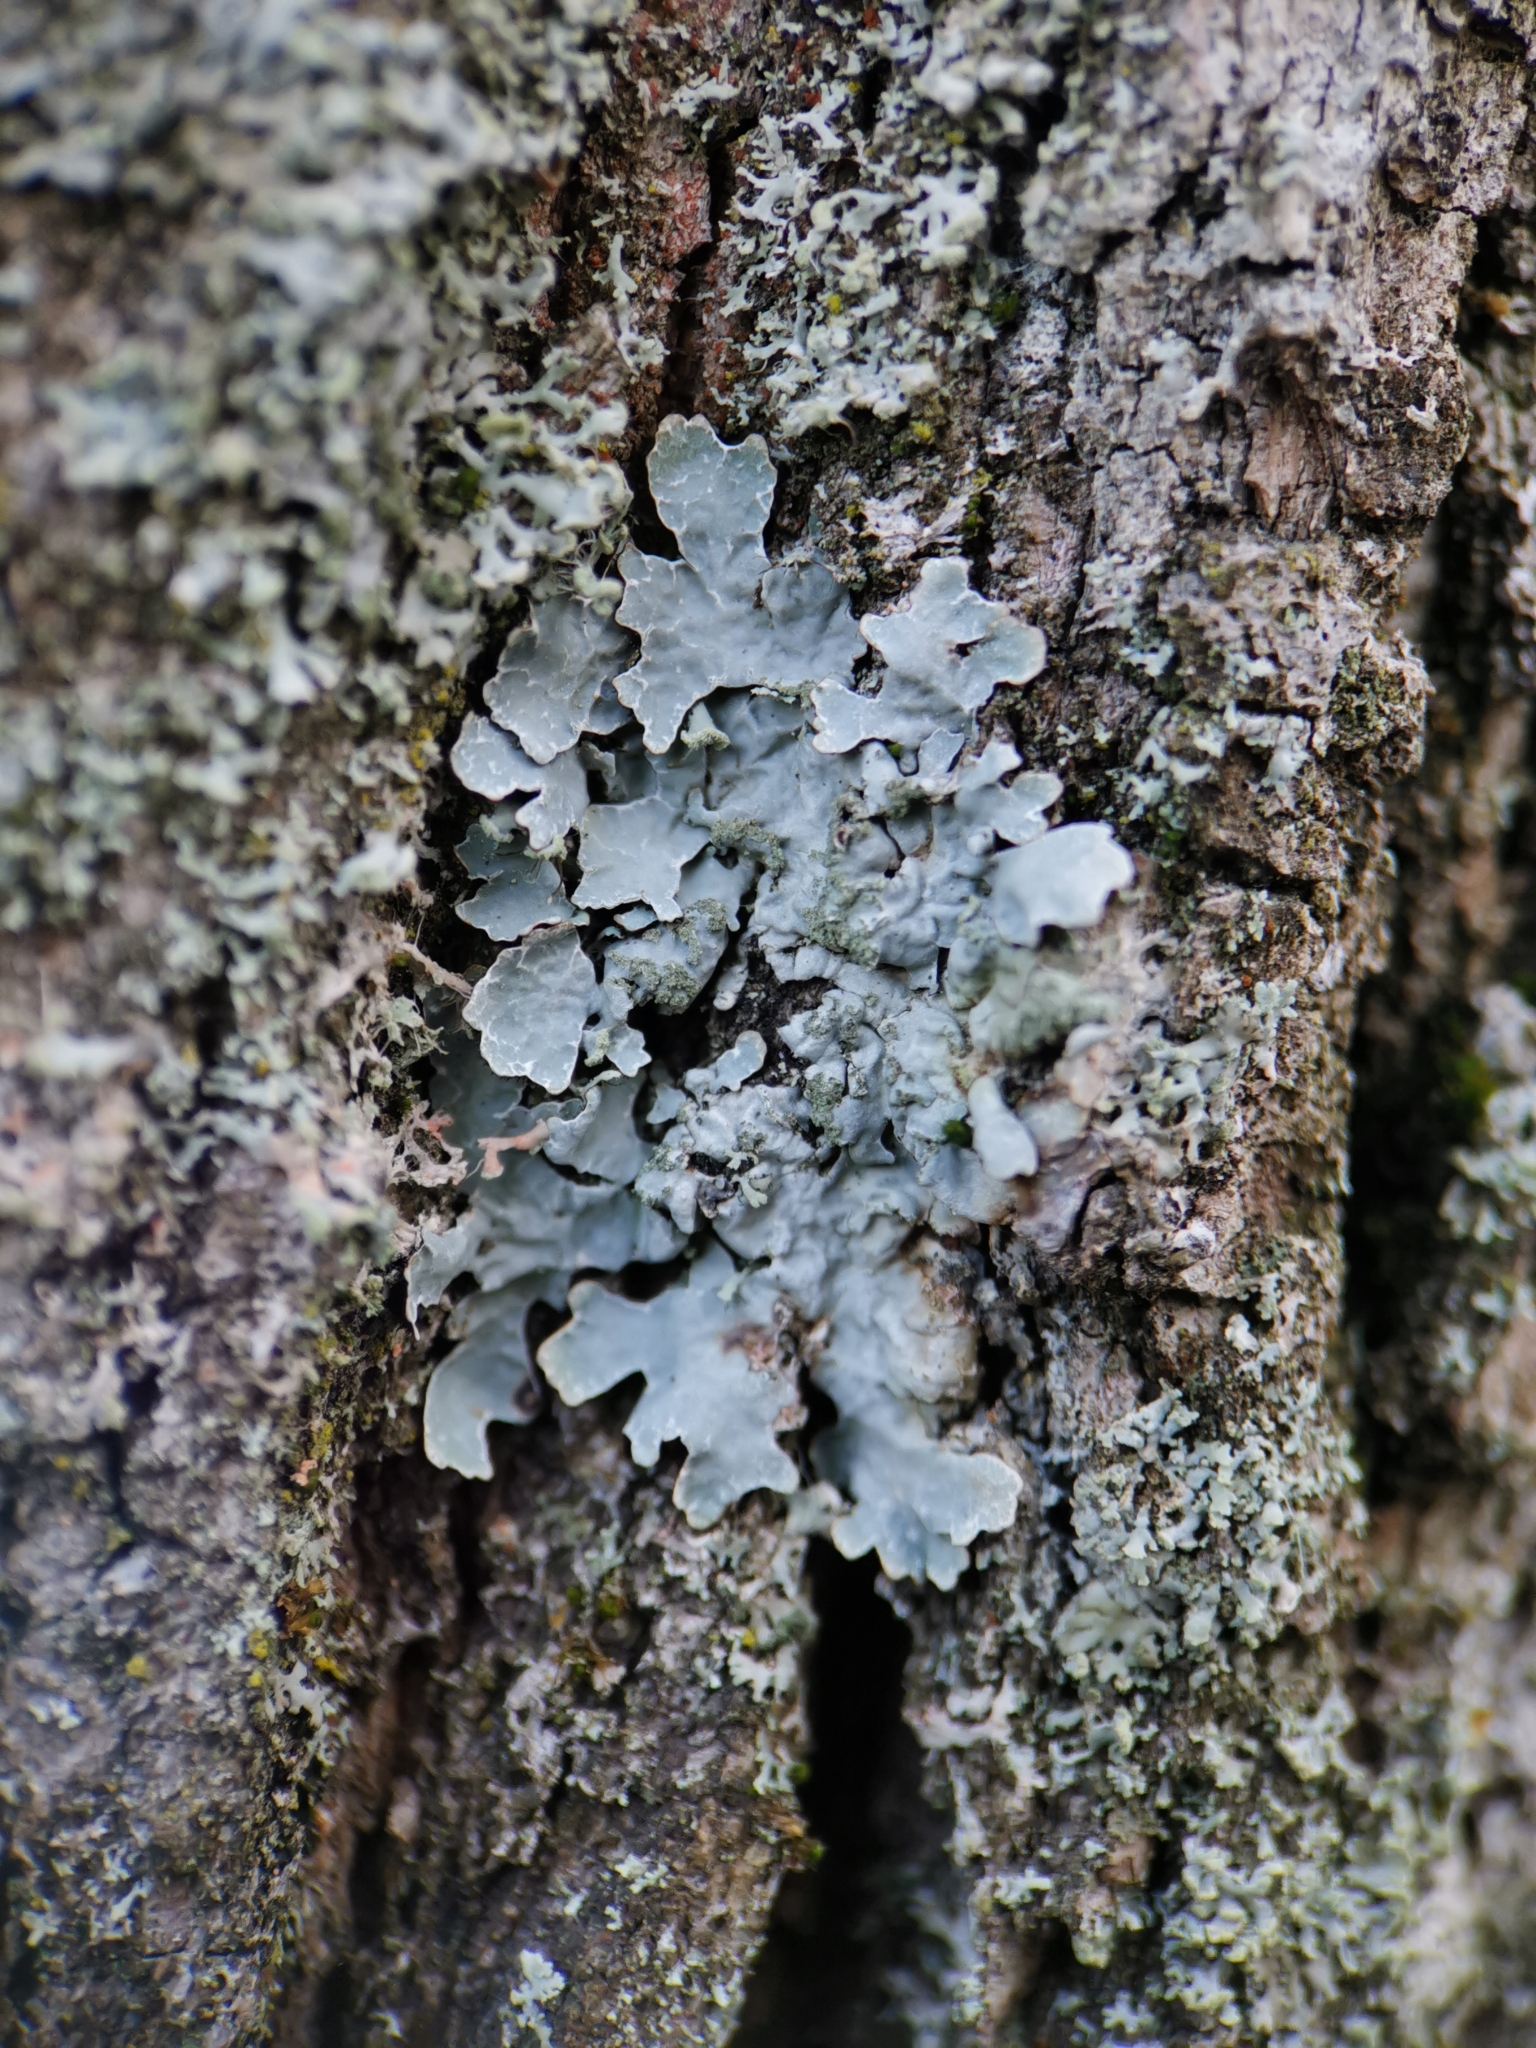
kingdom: Fungi
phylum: Ascomycota
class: Lecanoromycetes
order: Lecanorales
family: Parmeliaceae
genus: Parmelia
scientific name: Parmelia sulcata
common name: Netted shield lichen
